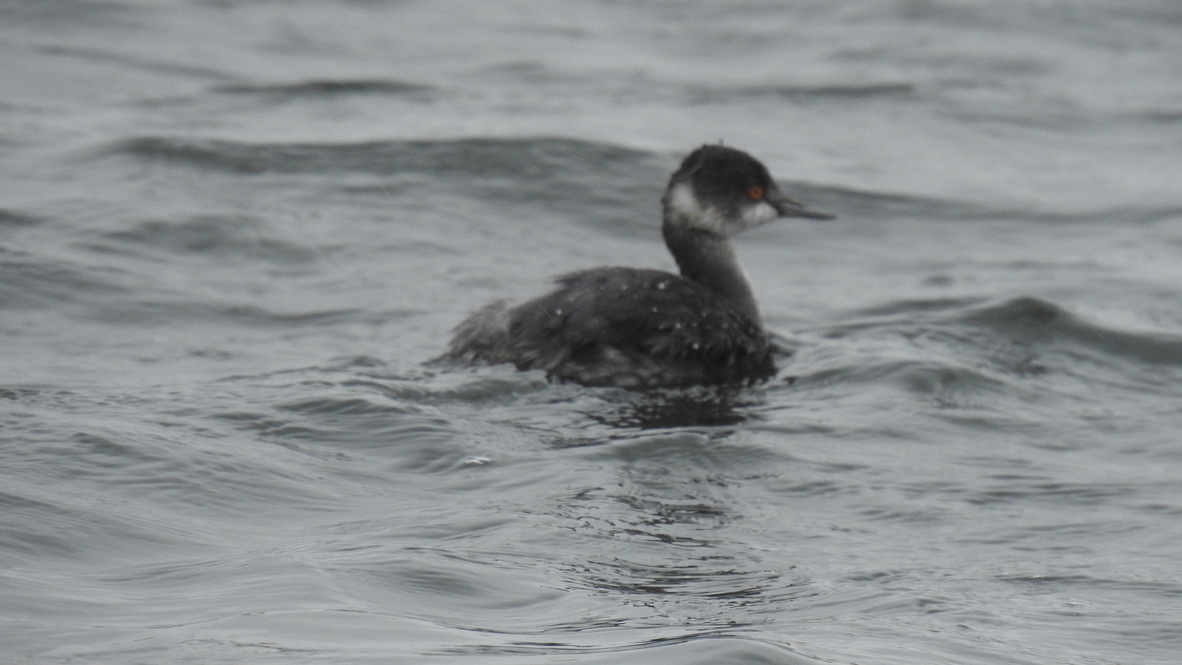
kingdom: Animalia
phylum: Chordata
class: Aves
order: Podicipediformes
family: Podicipedidae
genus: Podiceps
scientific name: Podiceps nigricollis
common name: Black-necked grebe
